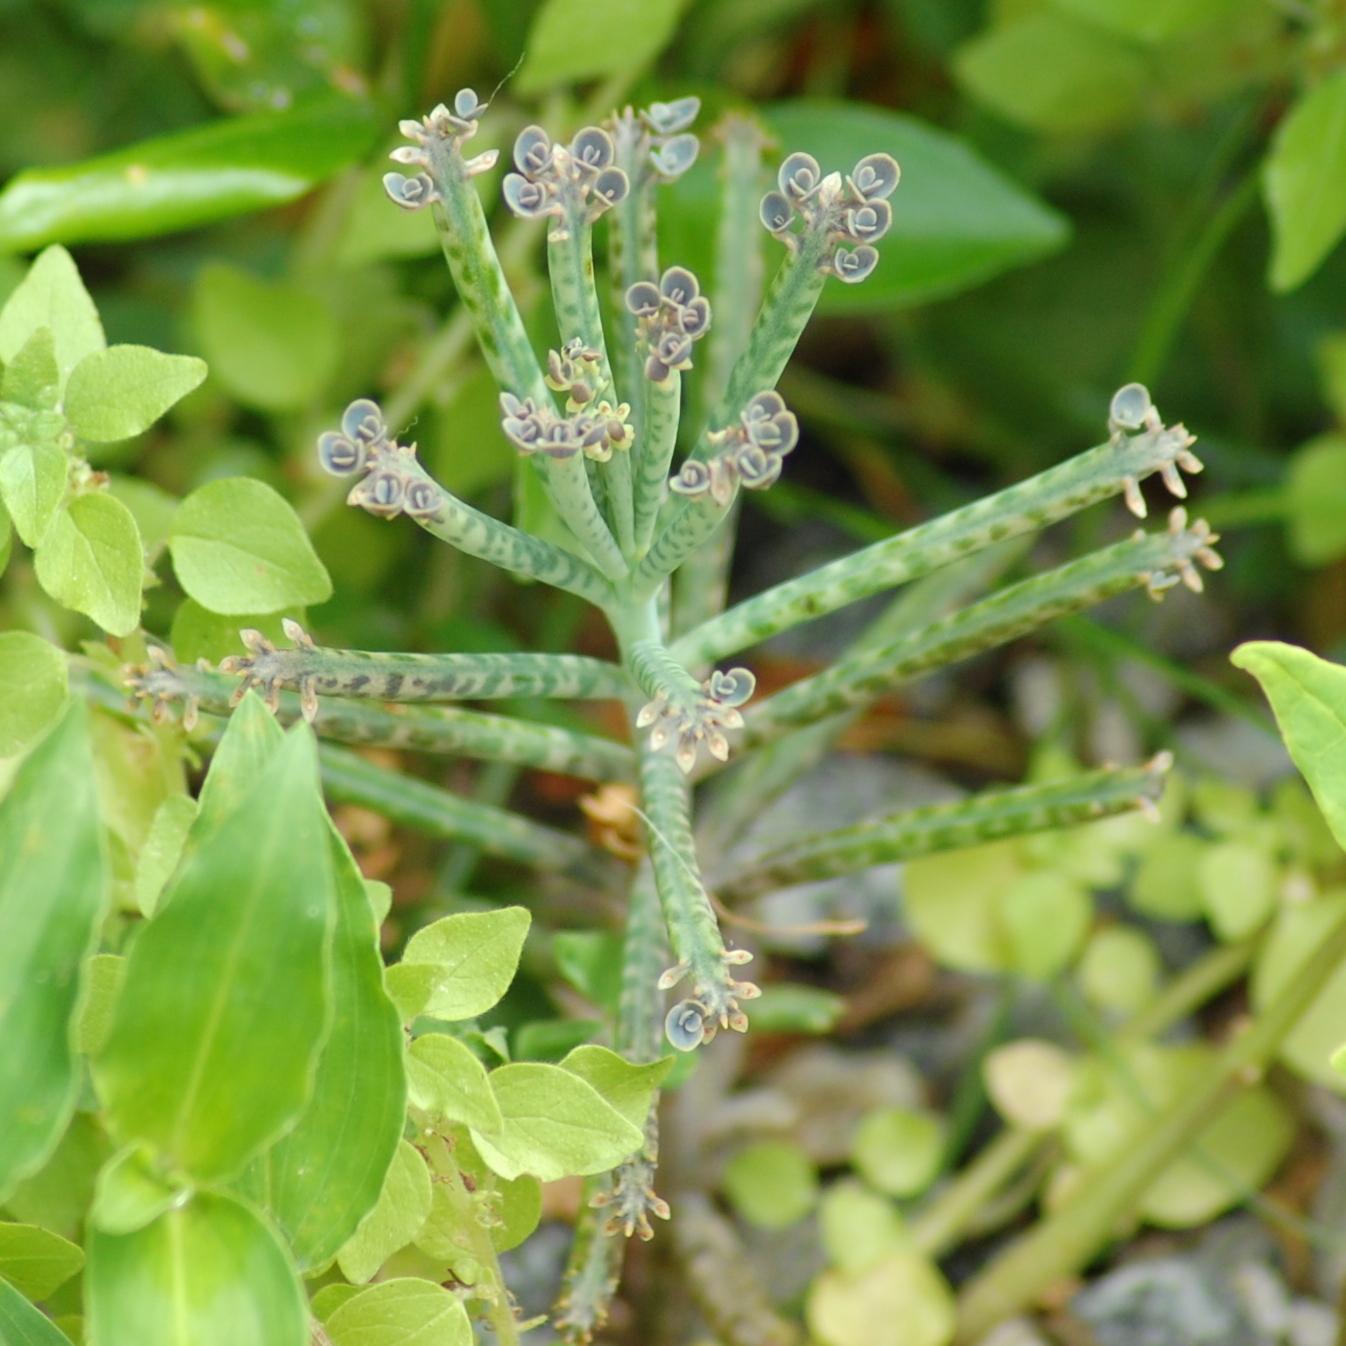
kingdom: Plantae
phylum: Tracheophyta
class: Magnoliopsida
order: Saxifragales
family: Crassulaceae
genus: Kalanchoe
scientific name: Kalanchoe delagoensis
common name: Chandelier plant
